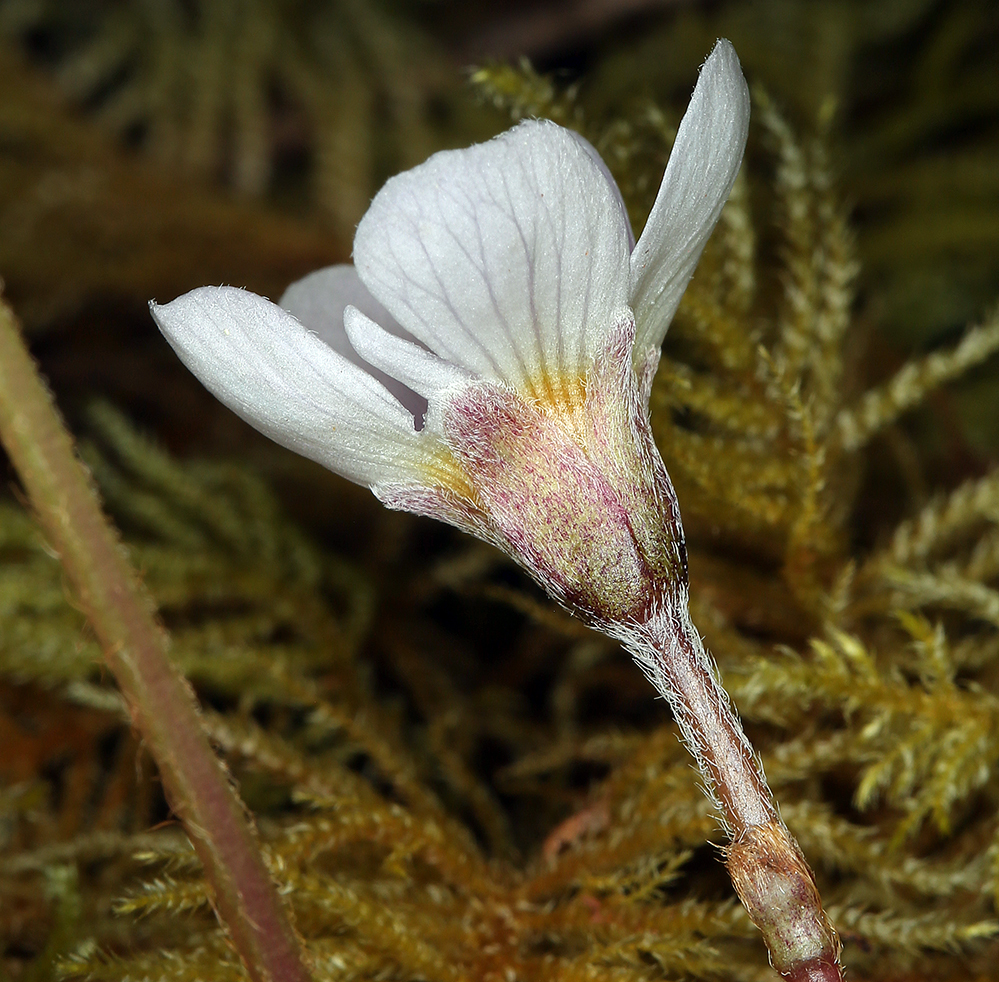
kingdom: Plantae
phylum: Tracheophyta
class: Magnoliopsida
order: Oxalidales
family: Oxalidaceae
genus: Oxalis
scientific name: Oxalis oregana
